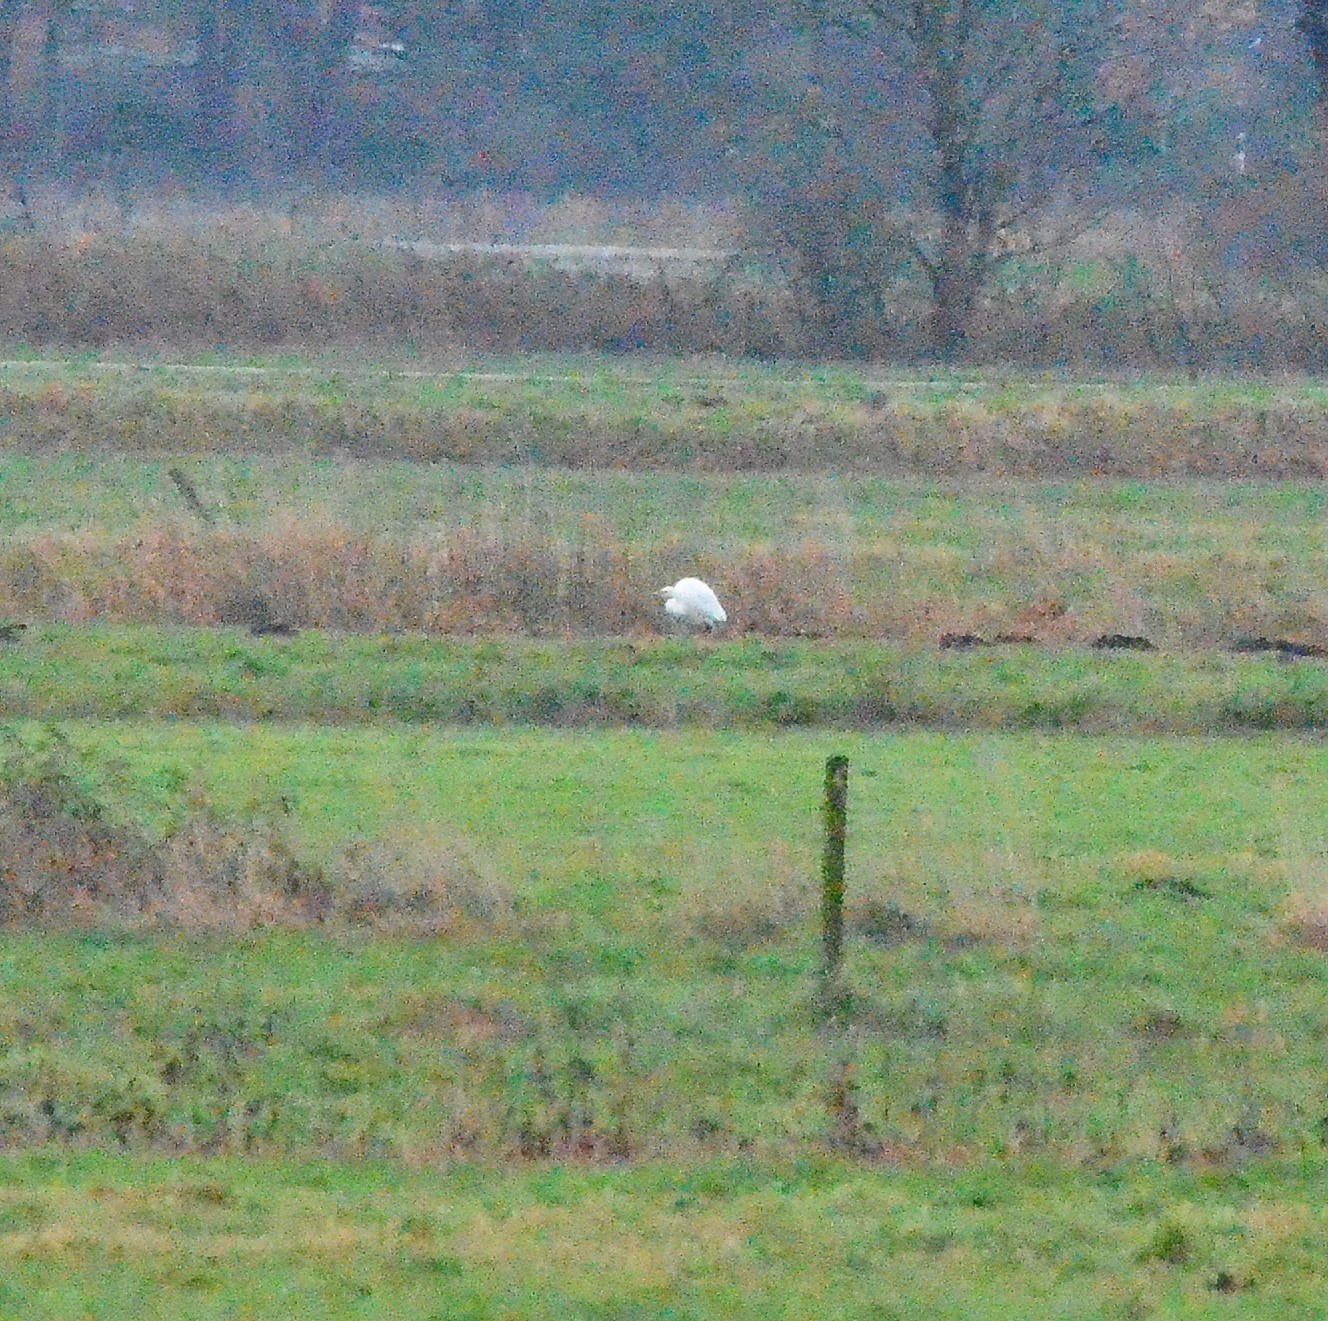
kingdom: Animalia
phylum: Chordata
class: Aves
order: Pelecaniformes
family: Ardeidae
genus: Ardea
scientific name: Ardea alba
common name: Great egret
